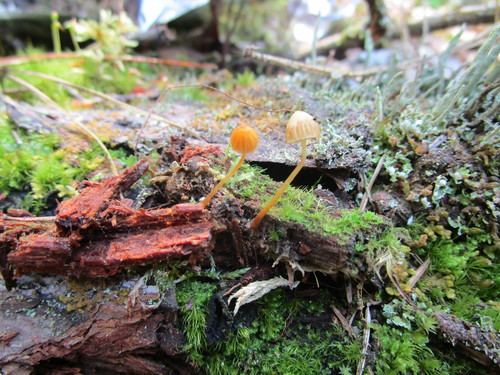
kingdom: Fungi
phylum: Basidiomycota
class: Agaricomycetes
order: Agaricales
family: Hymenogastraceae
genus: Galerina
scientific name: Galerina hypnorum
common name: Moss bell
